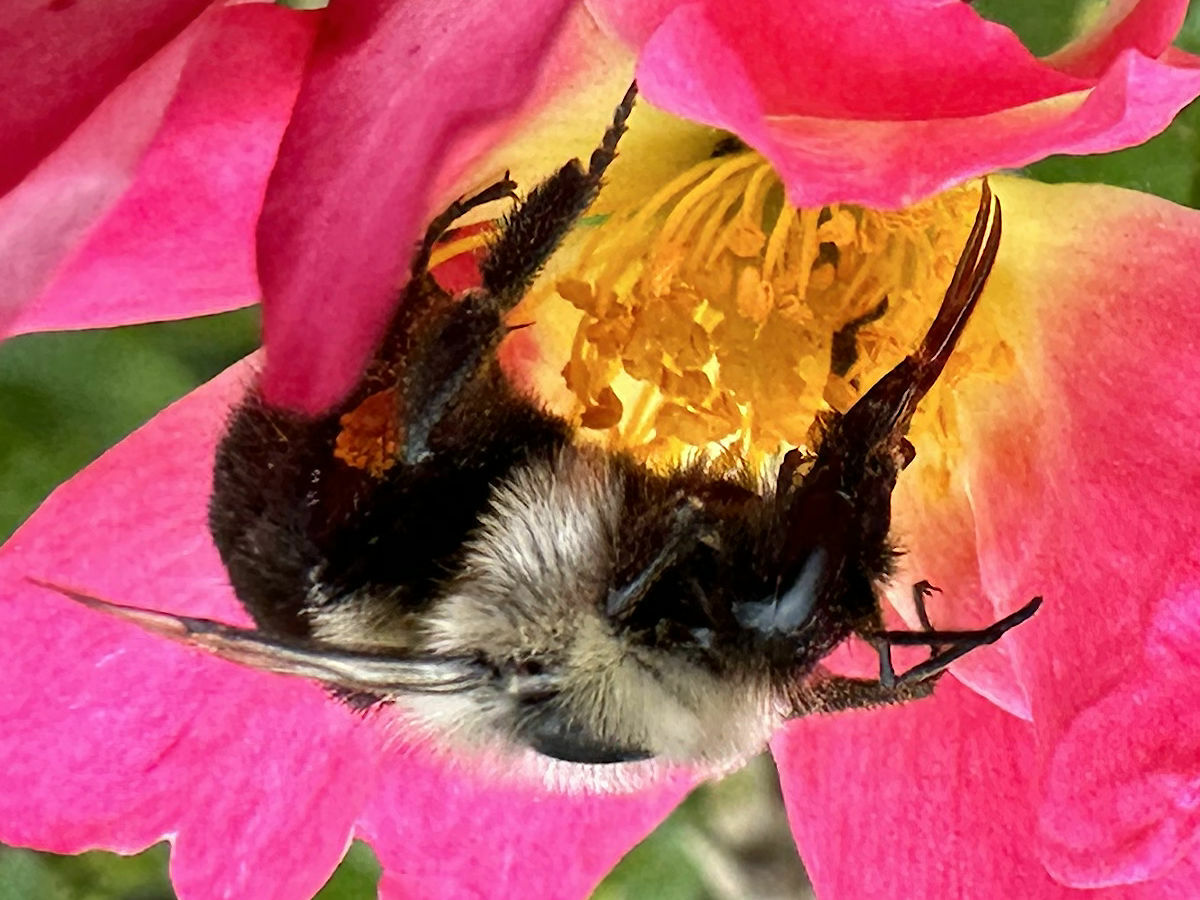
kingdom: Animalia
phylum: Arthropoda
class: Insecta
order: Hymenoptera
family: Apidae
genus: Bombus
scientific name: Bombus impatiens
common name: Common eastern bumble bee
